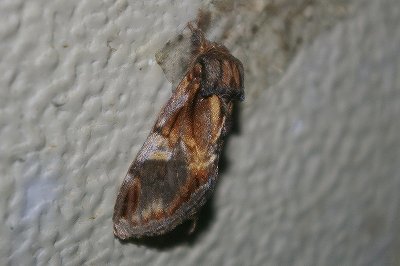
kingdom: Animalia
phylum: Arthropoda
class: Insecta
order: Lepidoptera
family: Notodontidae
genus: Notodonta
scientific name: Notodonta stigmatica
